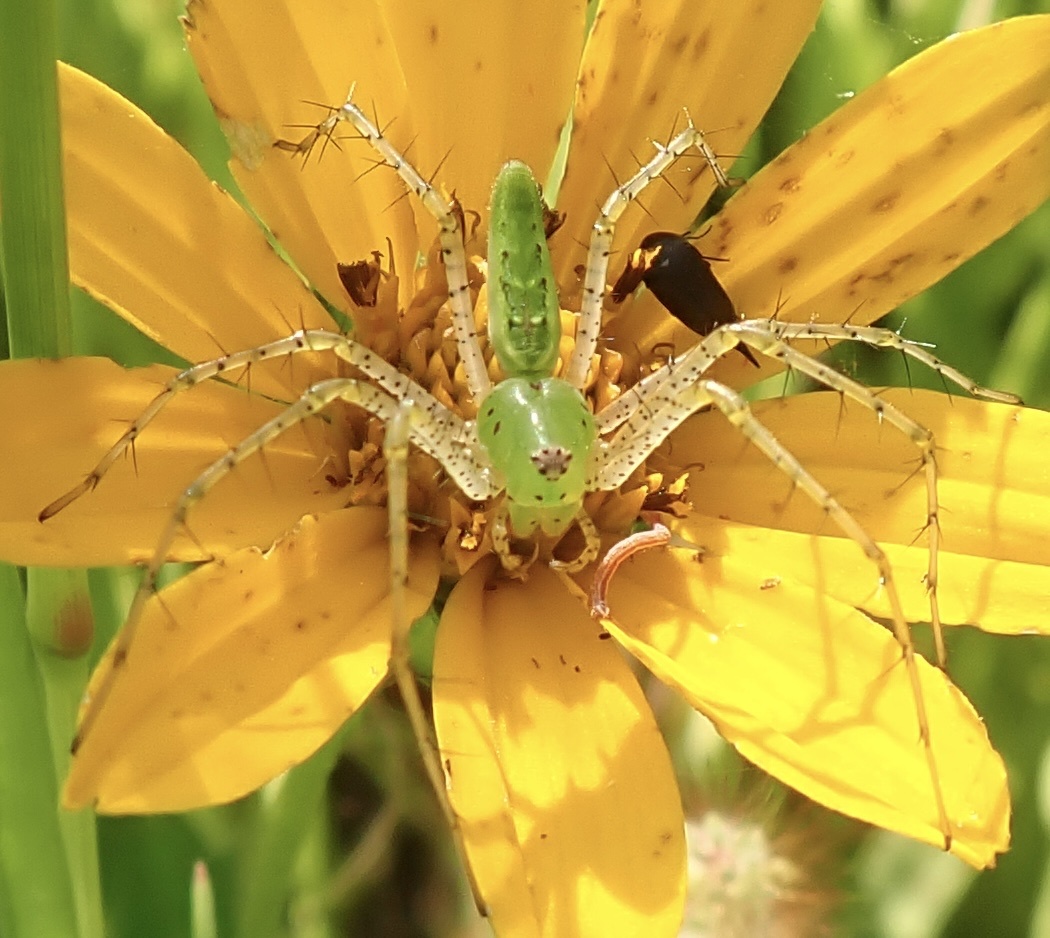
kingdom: Animalia
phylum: Arthropoda
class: Arachnida
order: Araneae
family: Oxyopidae
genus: Peucetia
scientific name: Peucetia viridans
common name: Lynx spiders
